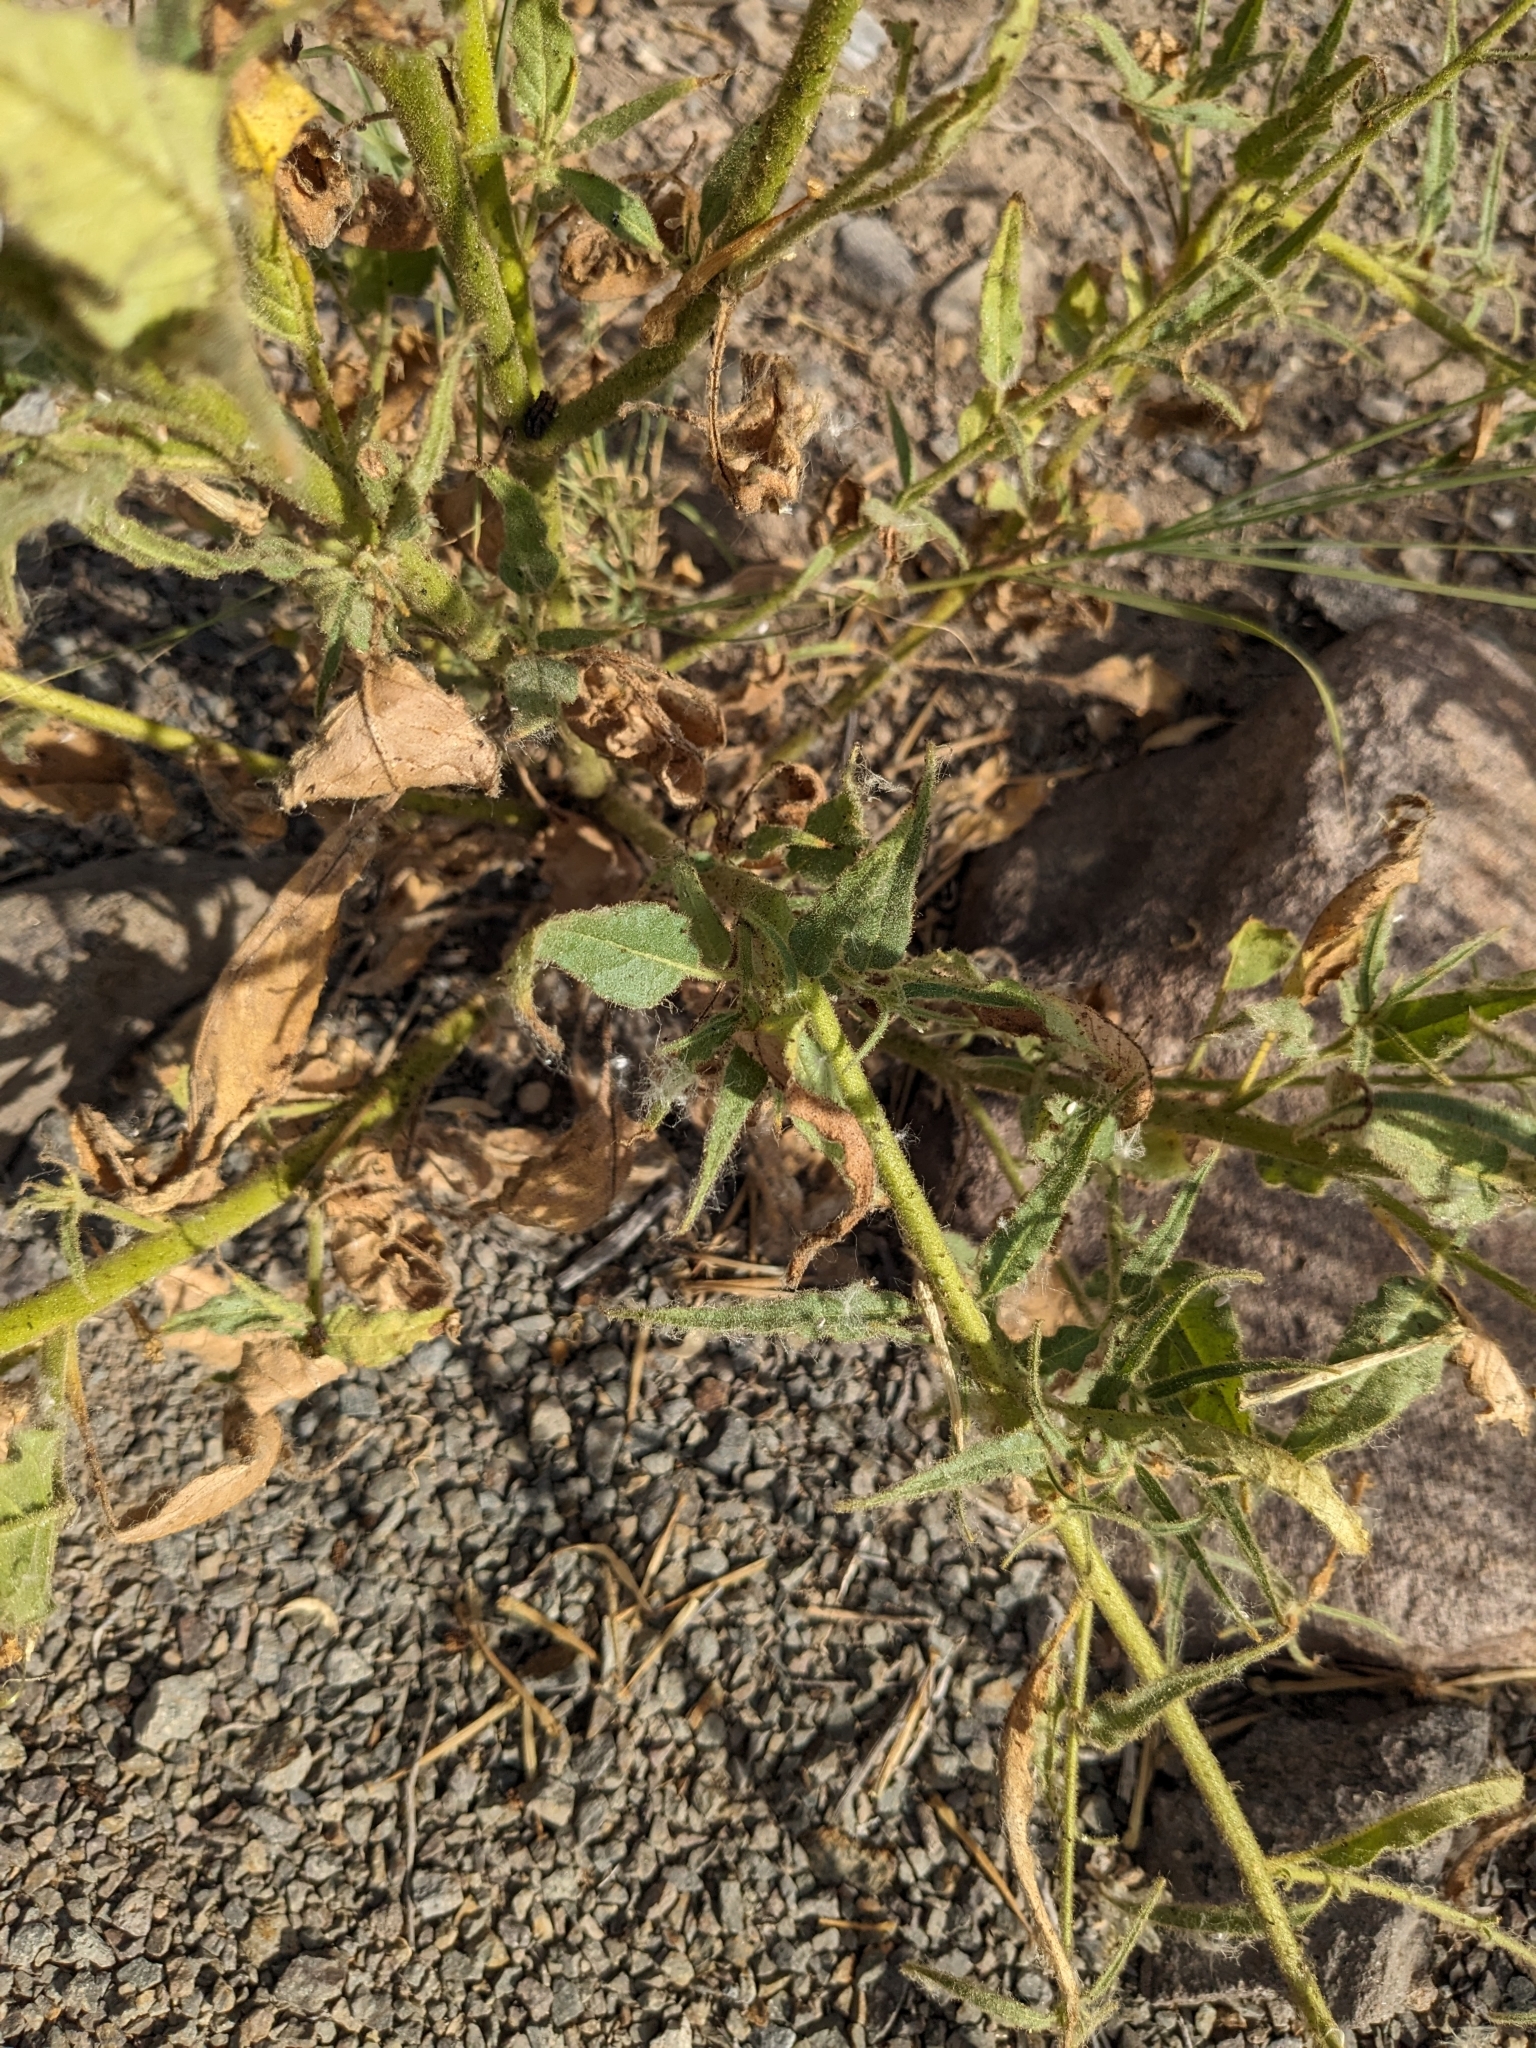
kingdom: Plantae
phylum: Tracheophyta
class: Magnoliopsida
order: Solanales
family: Solanaceae
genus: Nicotiana
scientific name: Nicotiana attenuata
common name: Coyote tobacco
